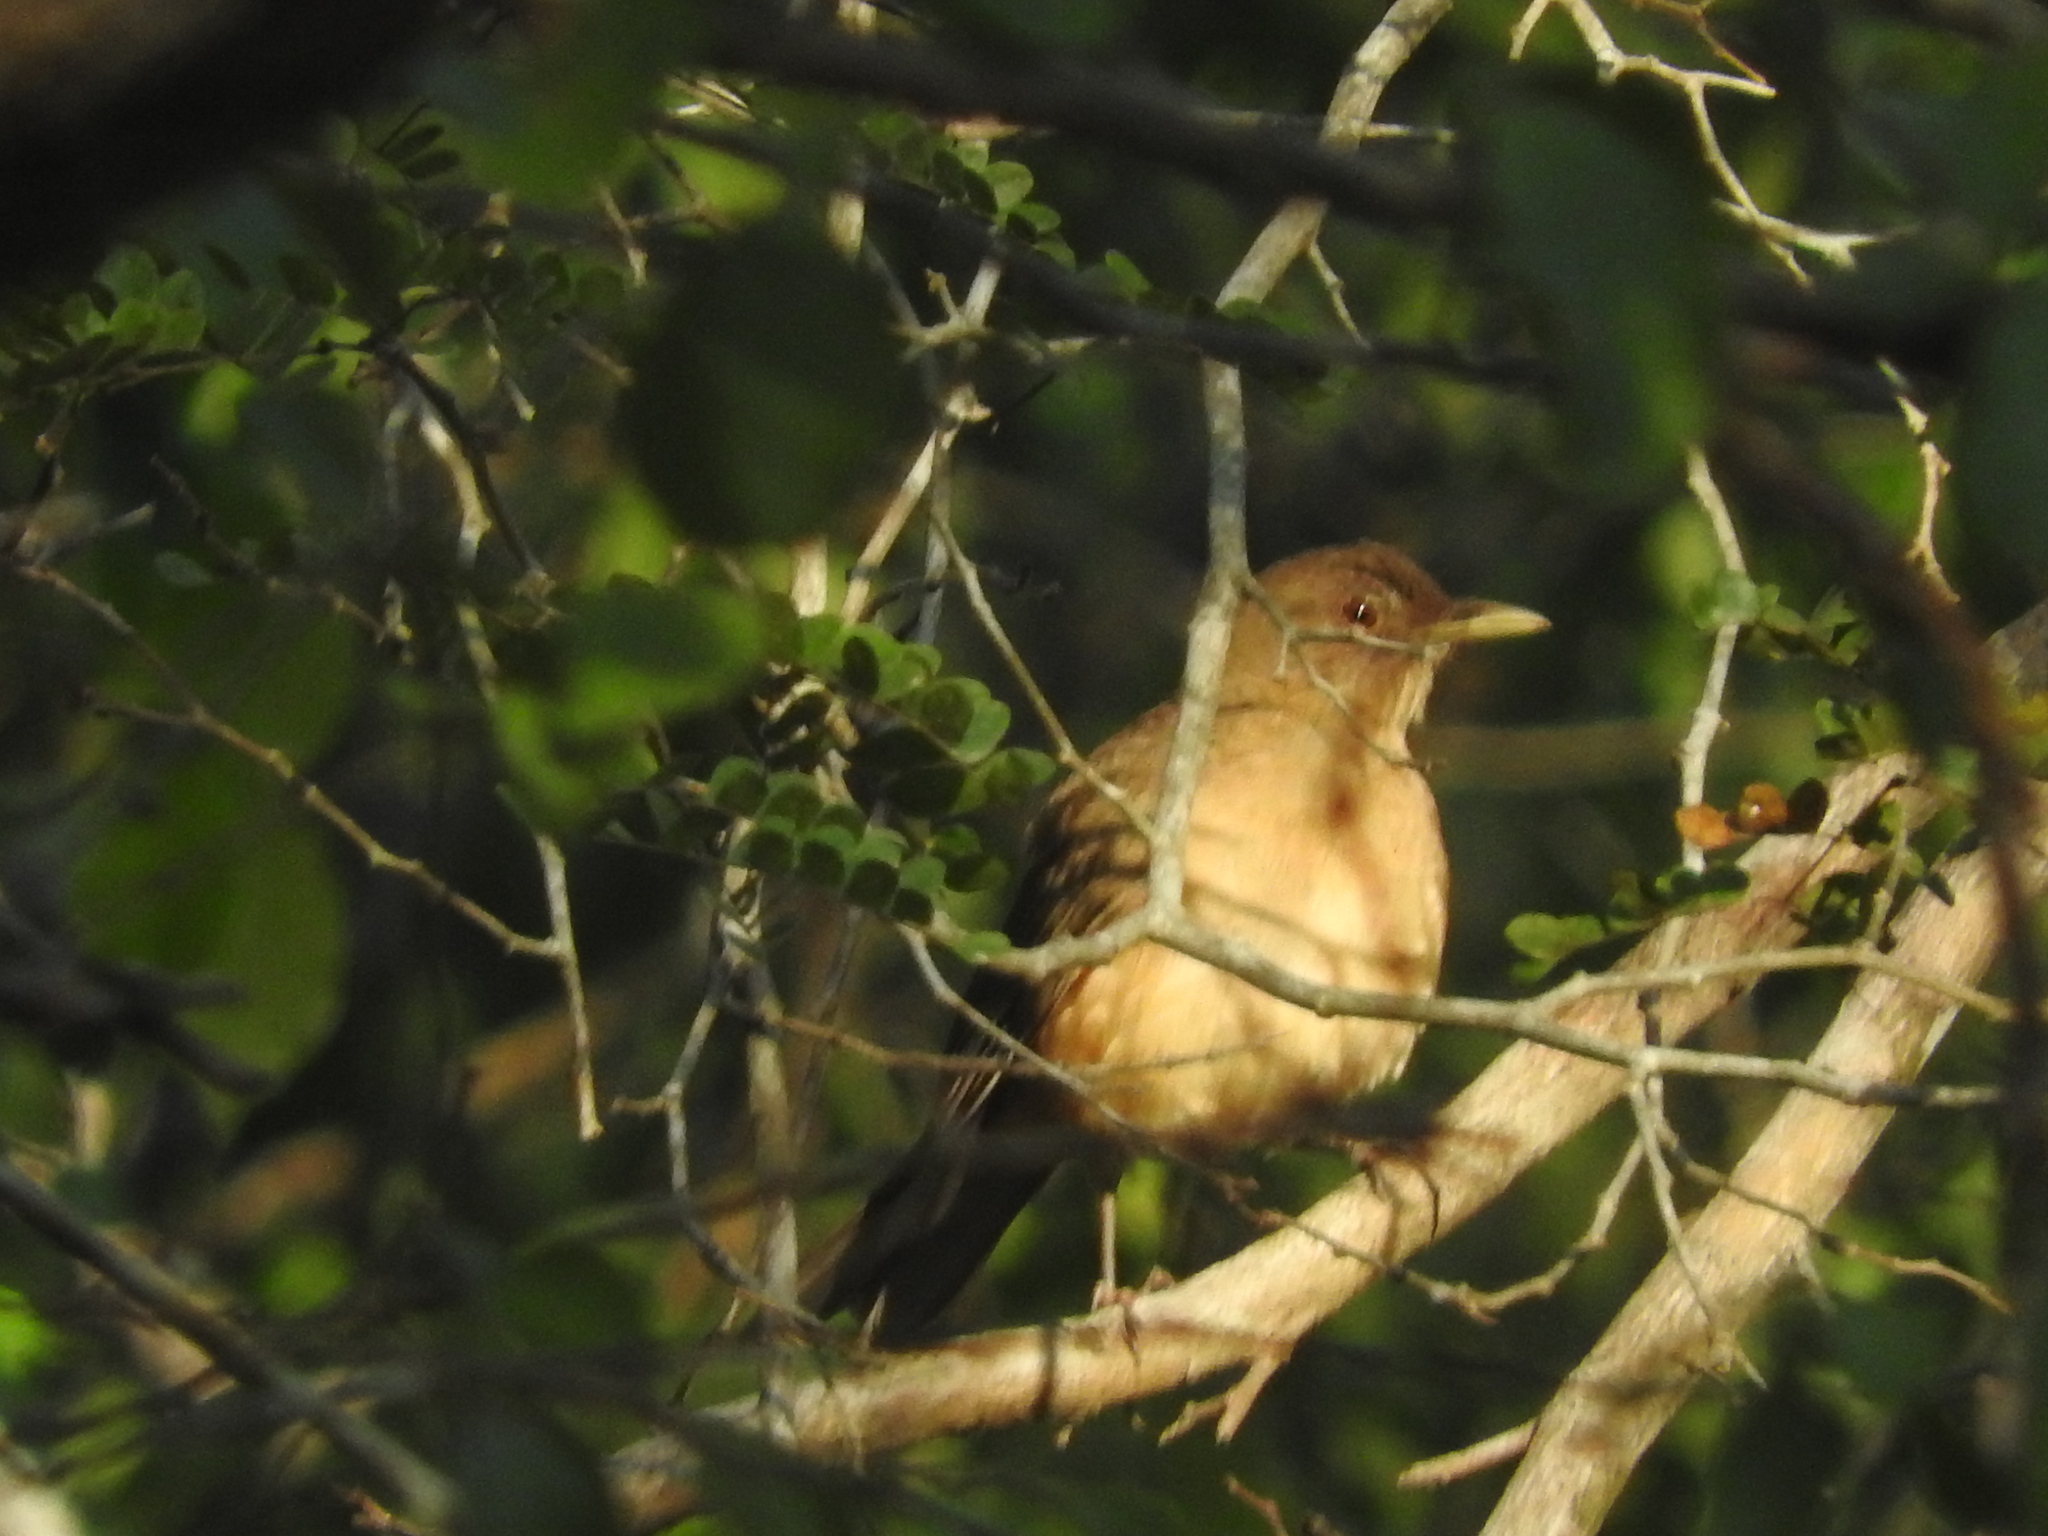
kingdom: Animalia
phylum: Chordata
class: Aves
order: Passeriformes
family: Turdidae
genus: Turdus
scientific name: Turdus grayi
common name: Clay-colored thrush
